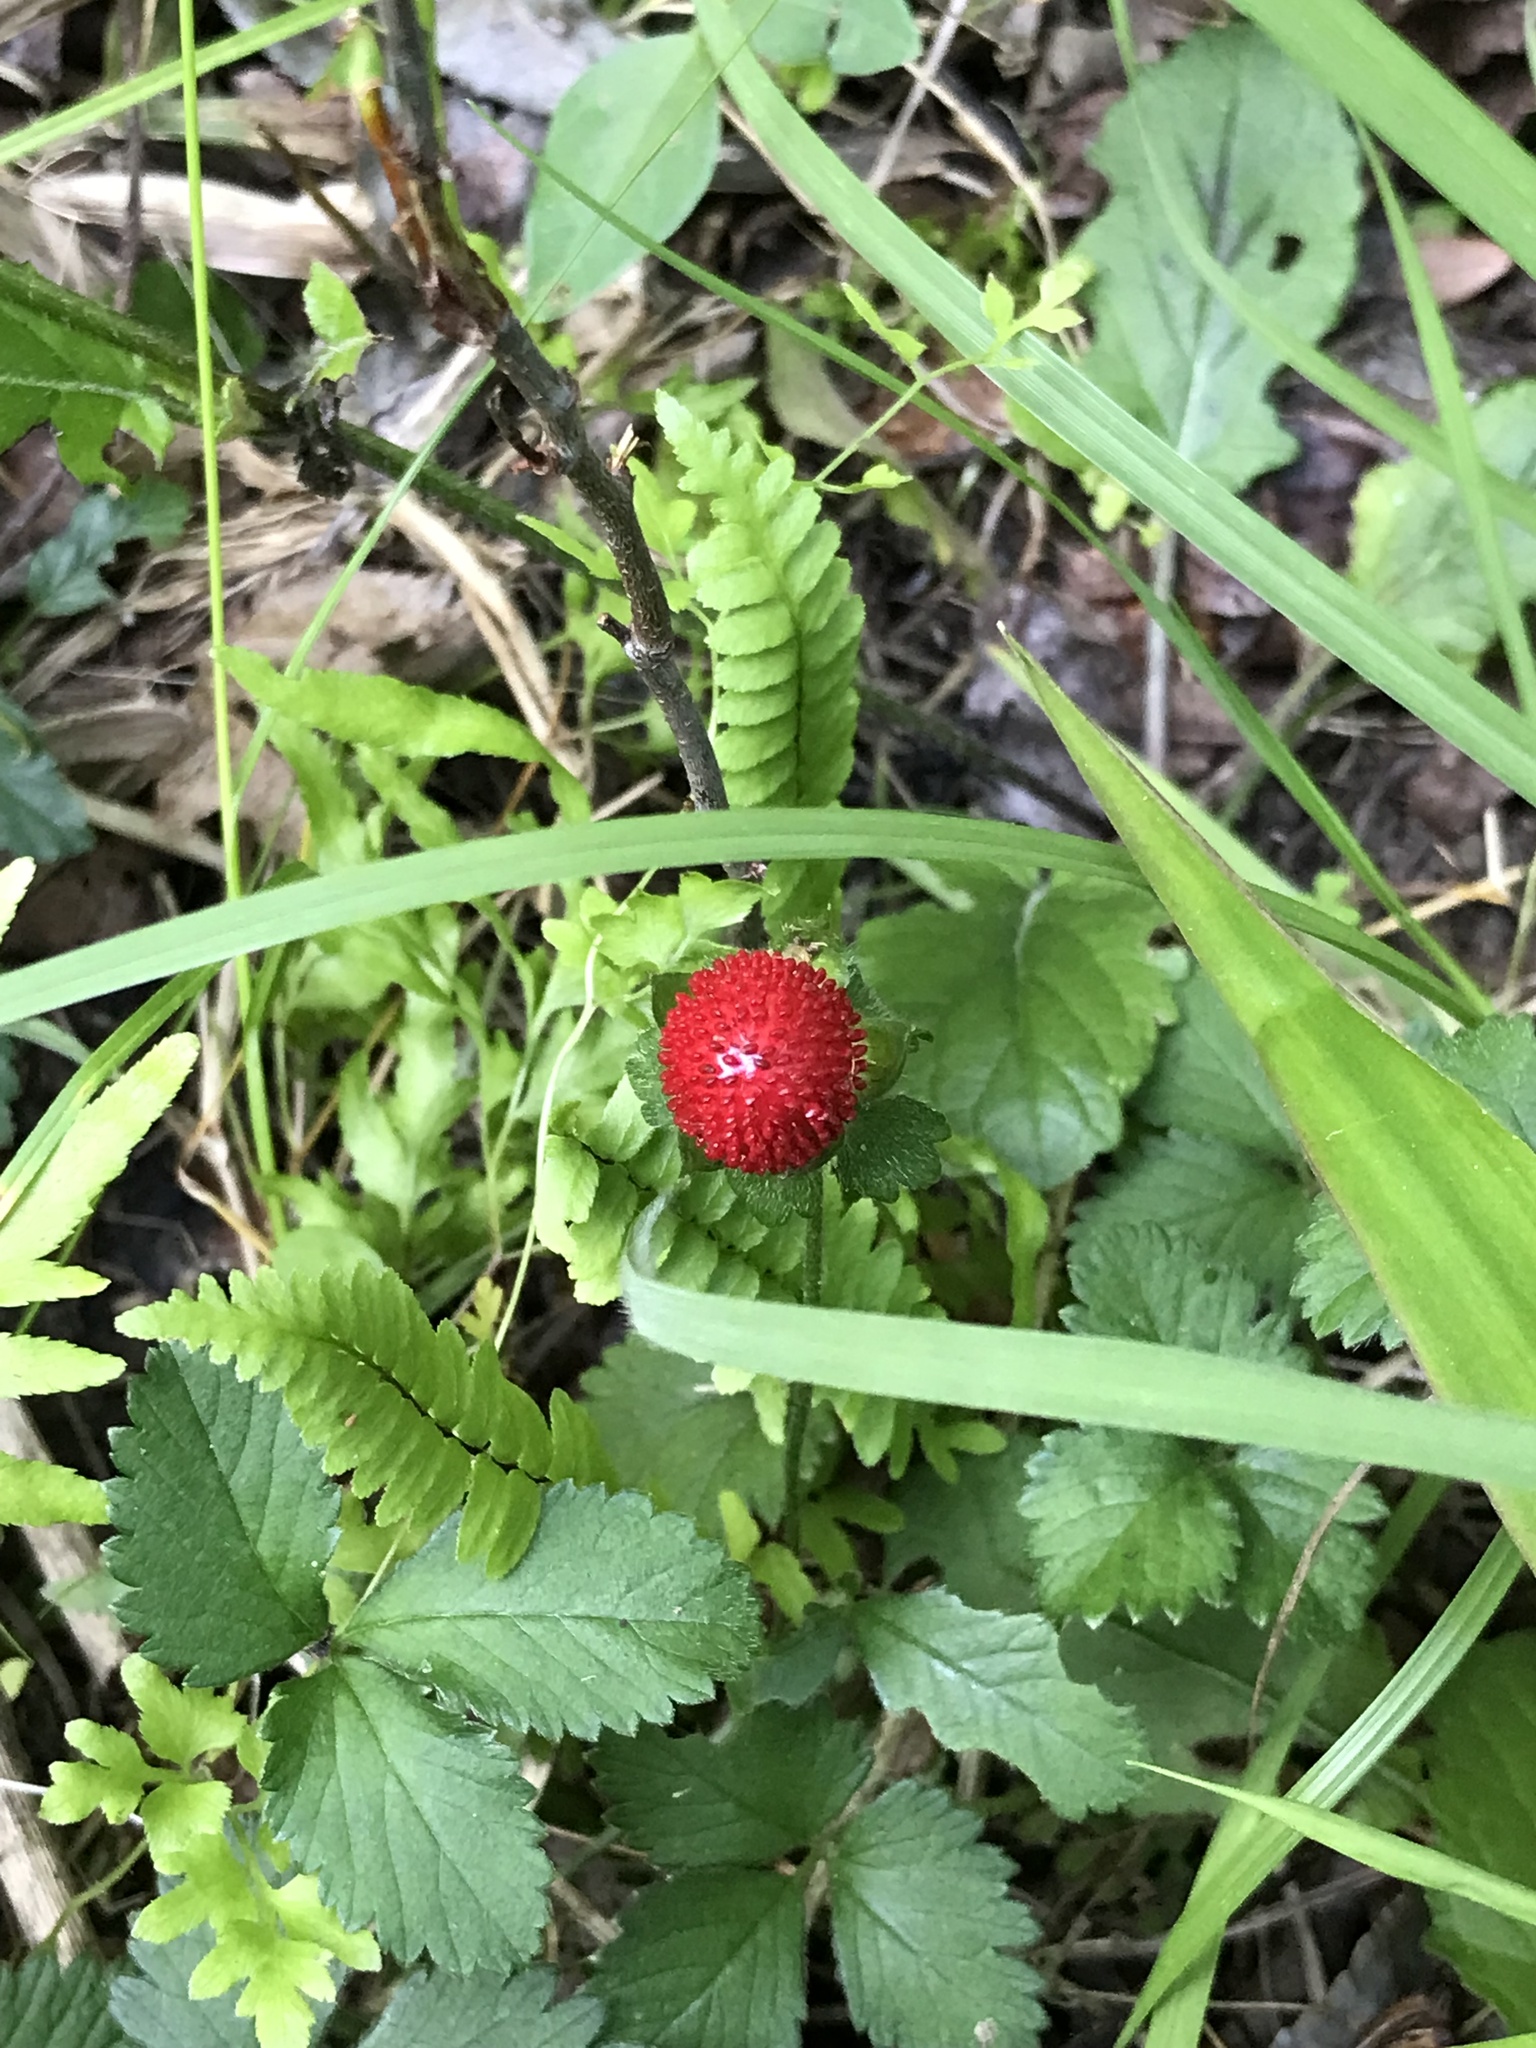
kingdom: Plantae
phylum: Tracheophyta
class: Magnoliopsida
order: Rosales
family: Rosaceae
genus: Potentilla
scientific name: Potentilla indica
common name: Yellow-flowered strawberry
